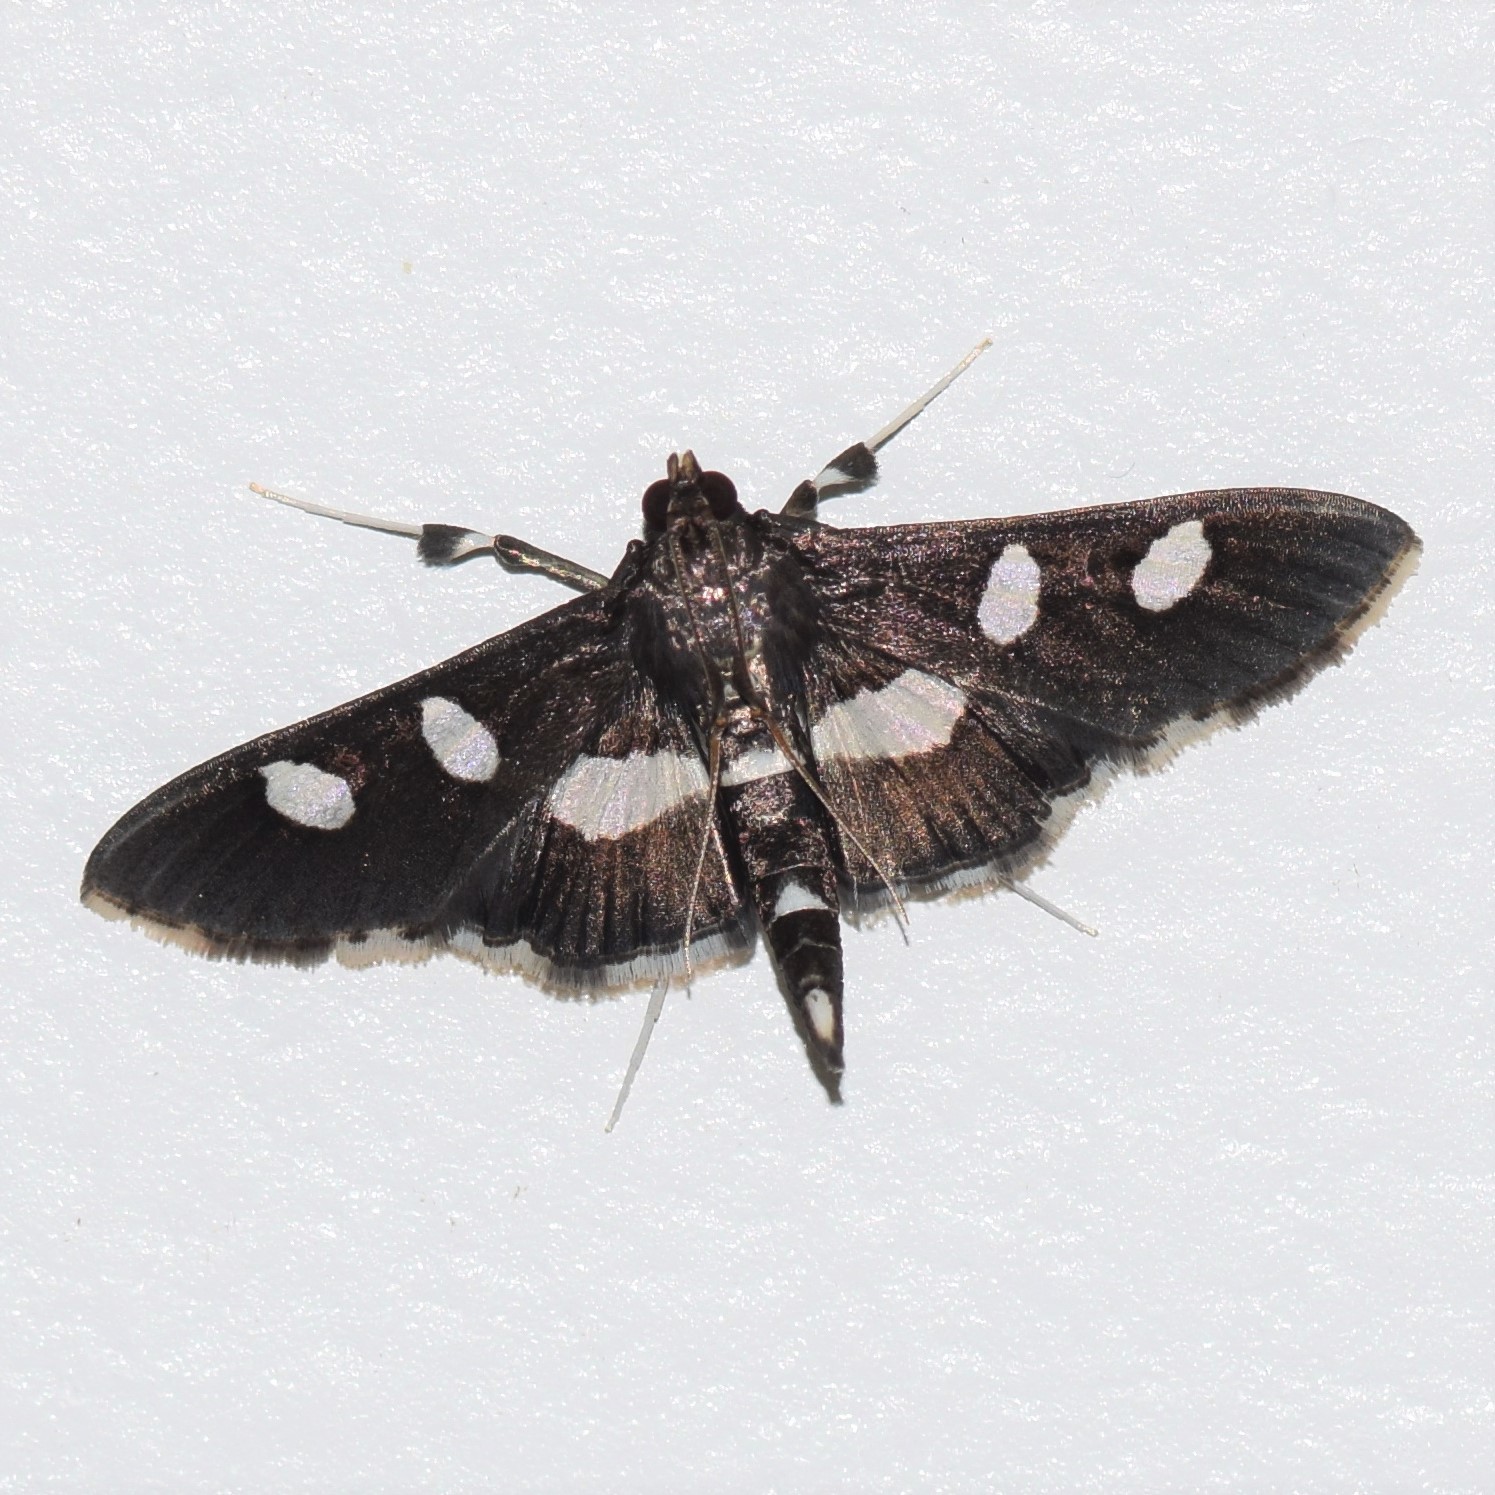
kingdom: Animalia
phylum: Arthropoda
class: Insecta
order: Lepidoptera
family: Crambidae
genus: Desmia
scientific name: Desmia
